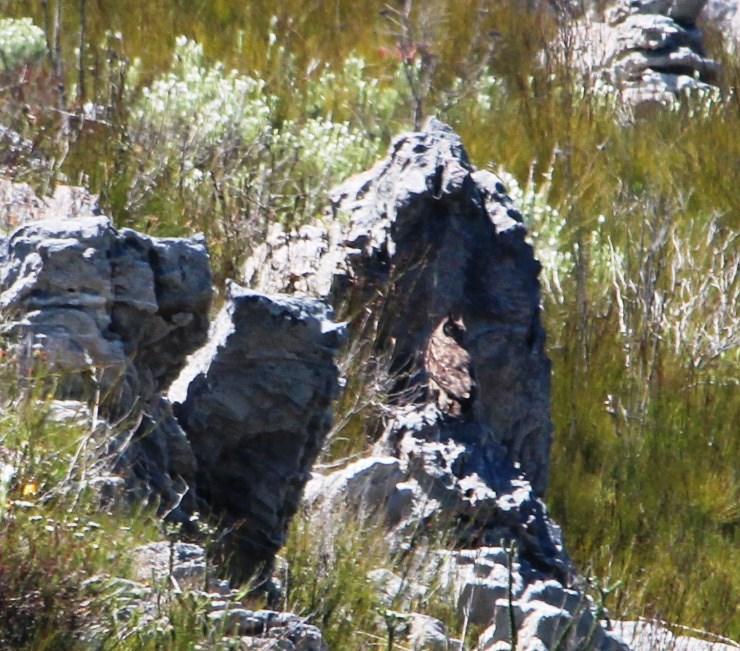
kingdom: Animalia
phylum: Chordata
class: Aves
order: Strigiformes
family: Strigidae
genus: Bubo
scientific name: Bubo africanus
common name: Spotted eagle-owl
